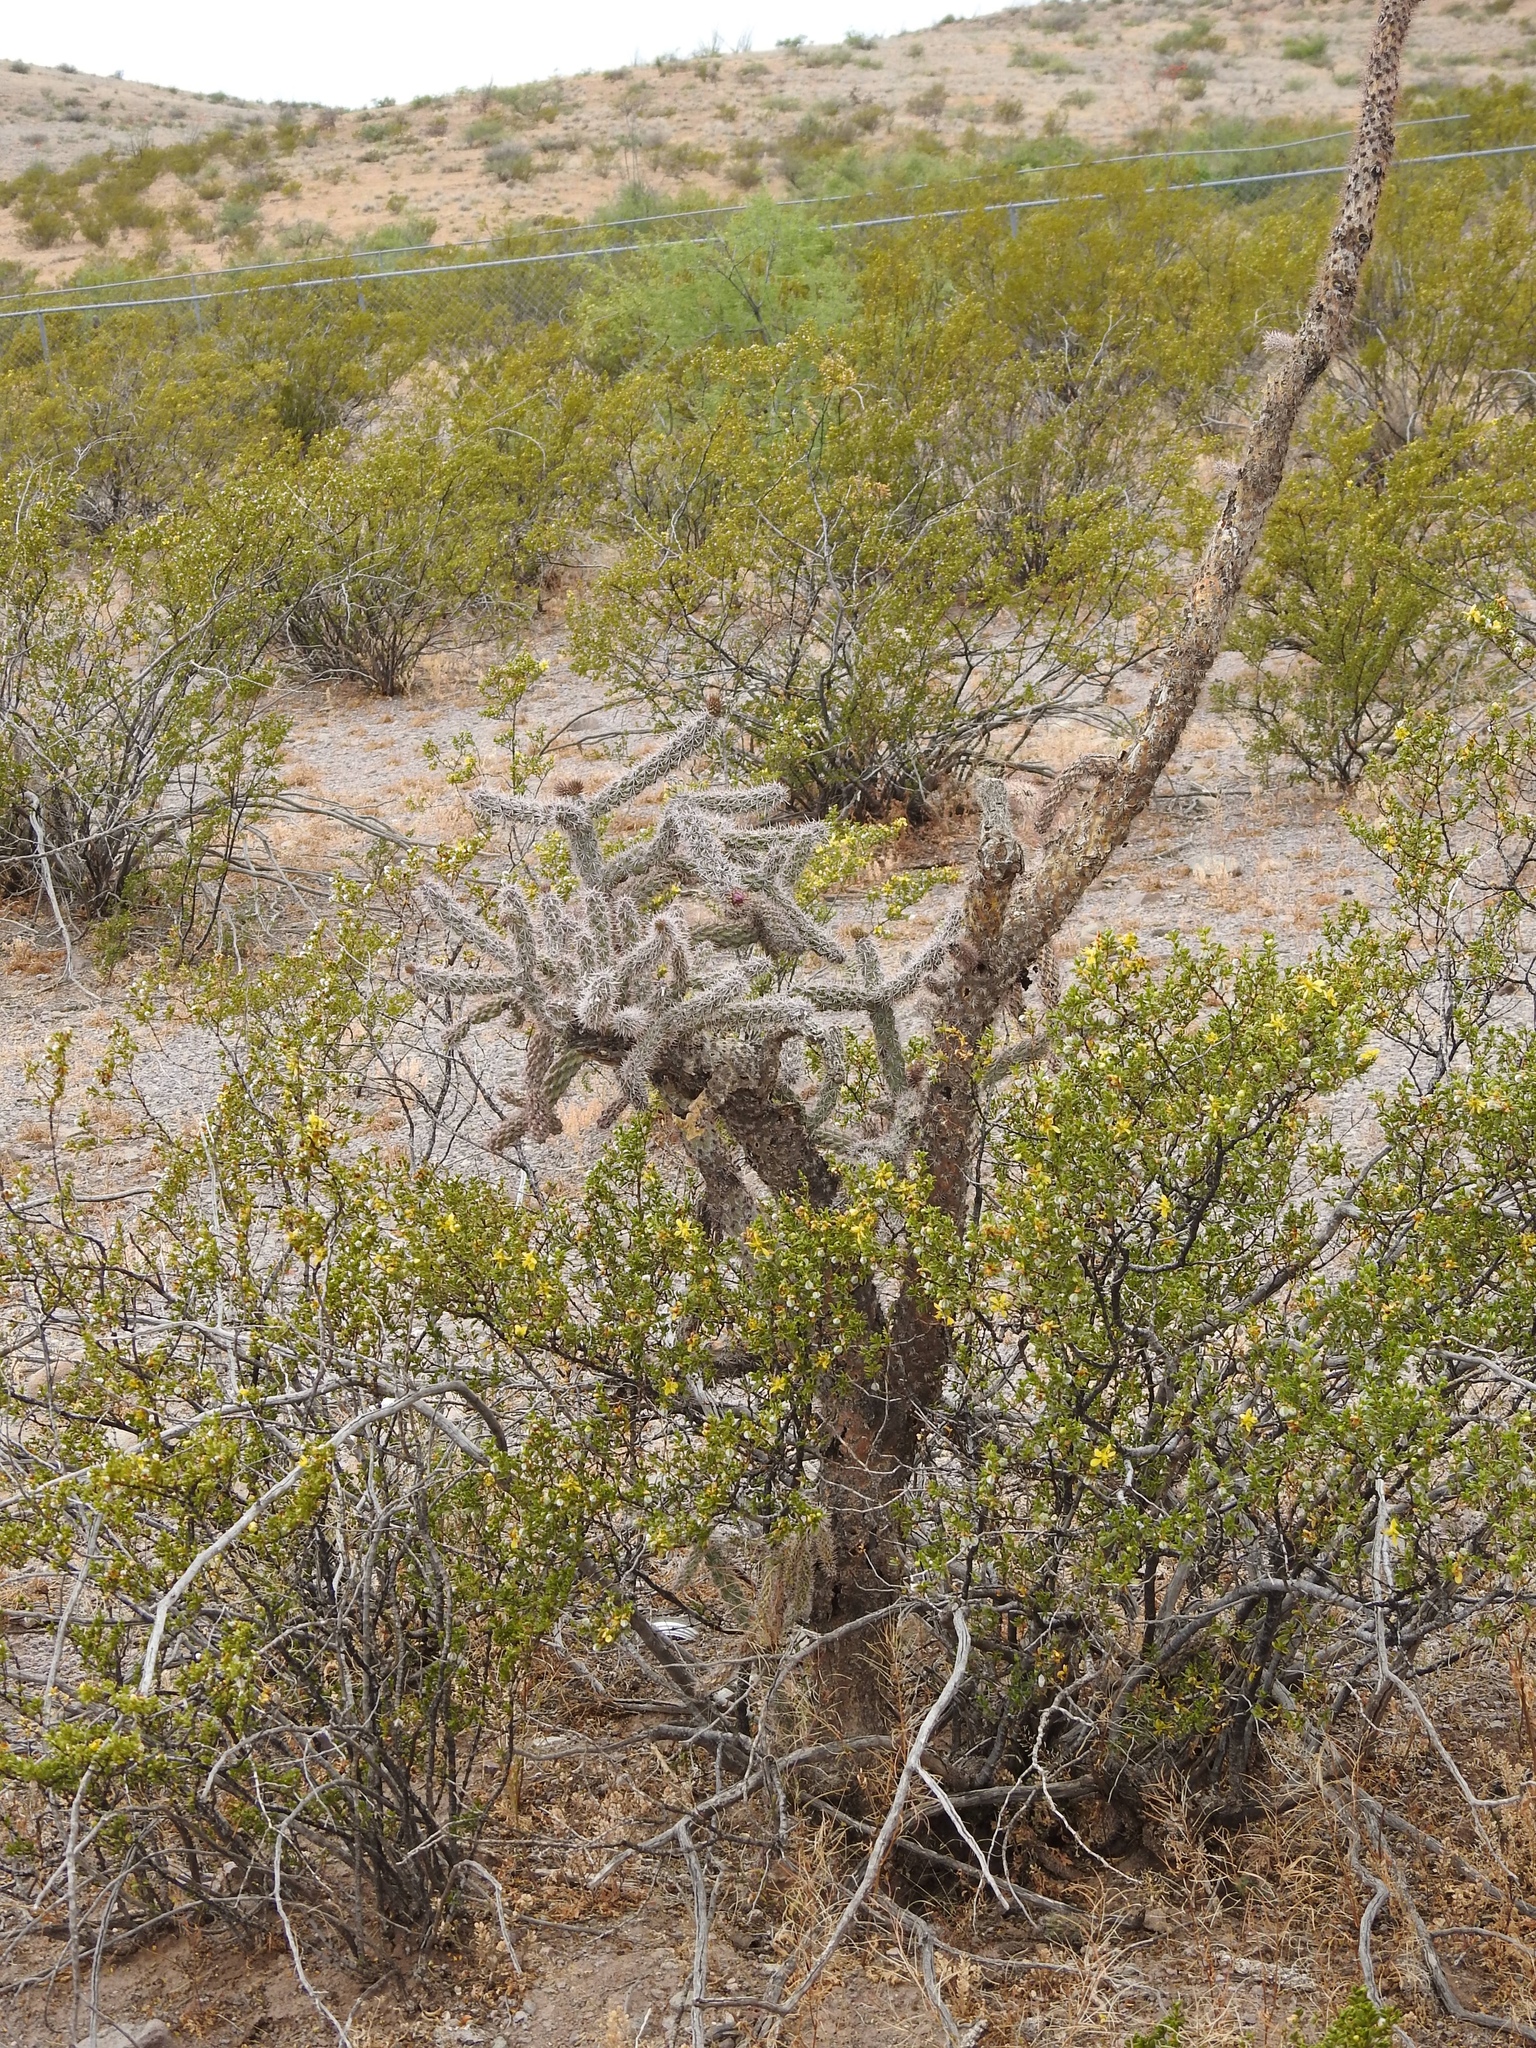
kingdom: Plantae
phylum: Tracheophyta
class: Magnoliopsida
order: Caryophyllales
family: Cactaceae
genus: Cylindropuntia
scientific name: Cylindropuntia imbricata
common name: Candelabrum cactus
